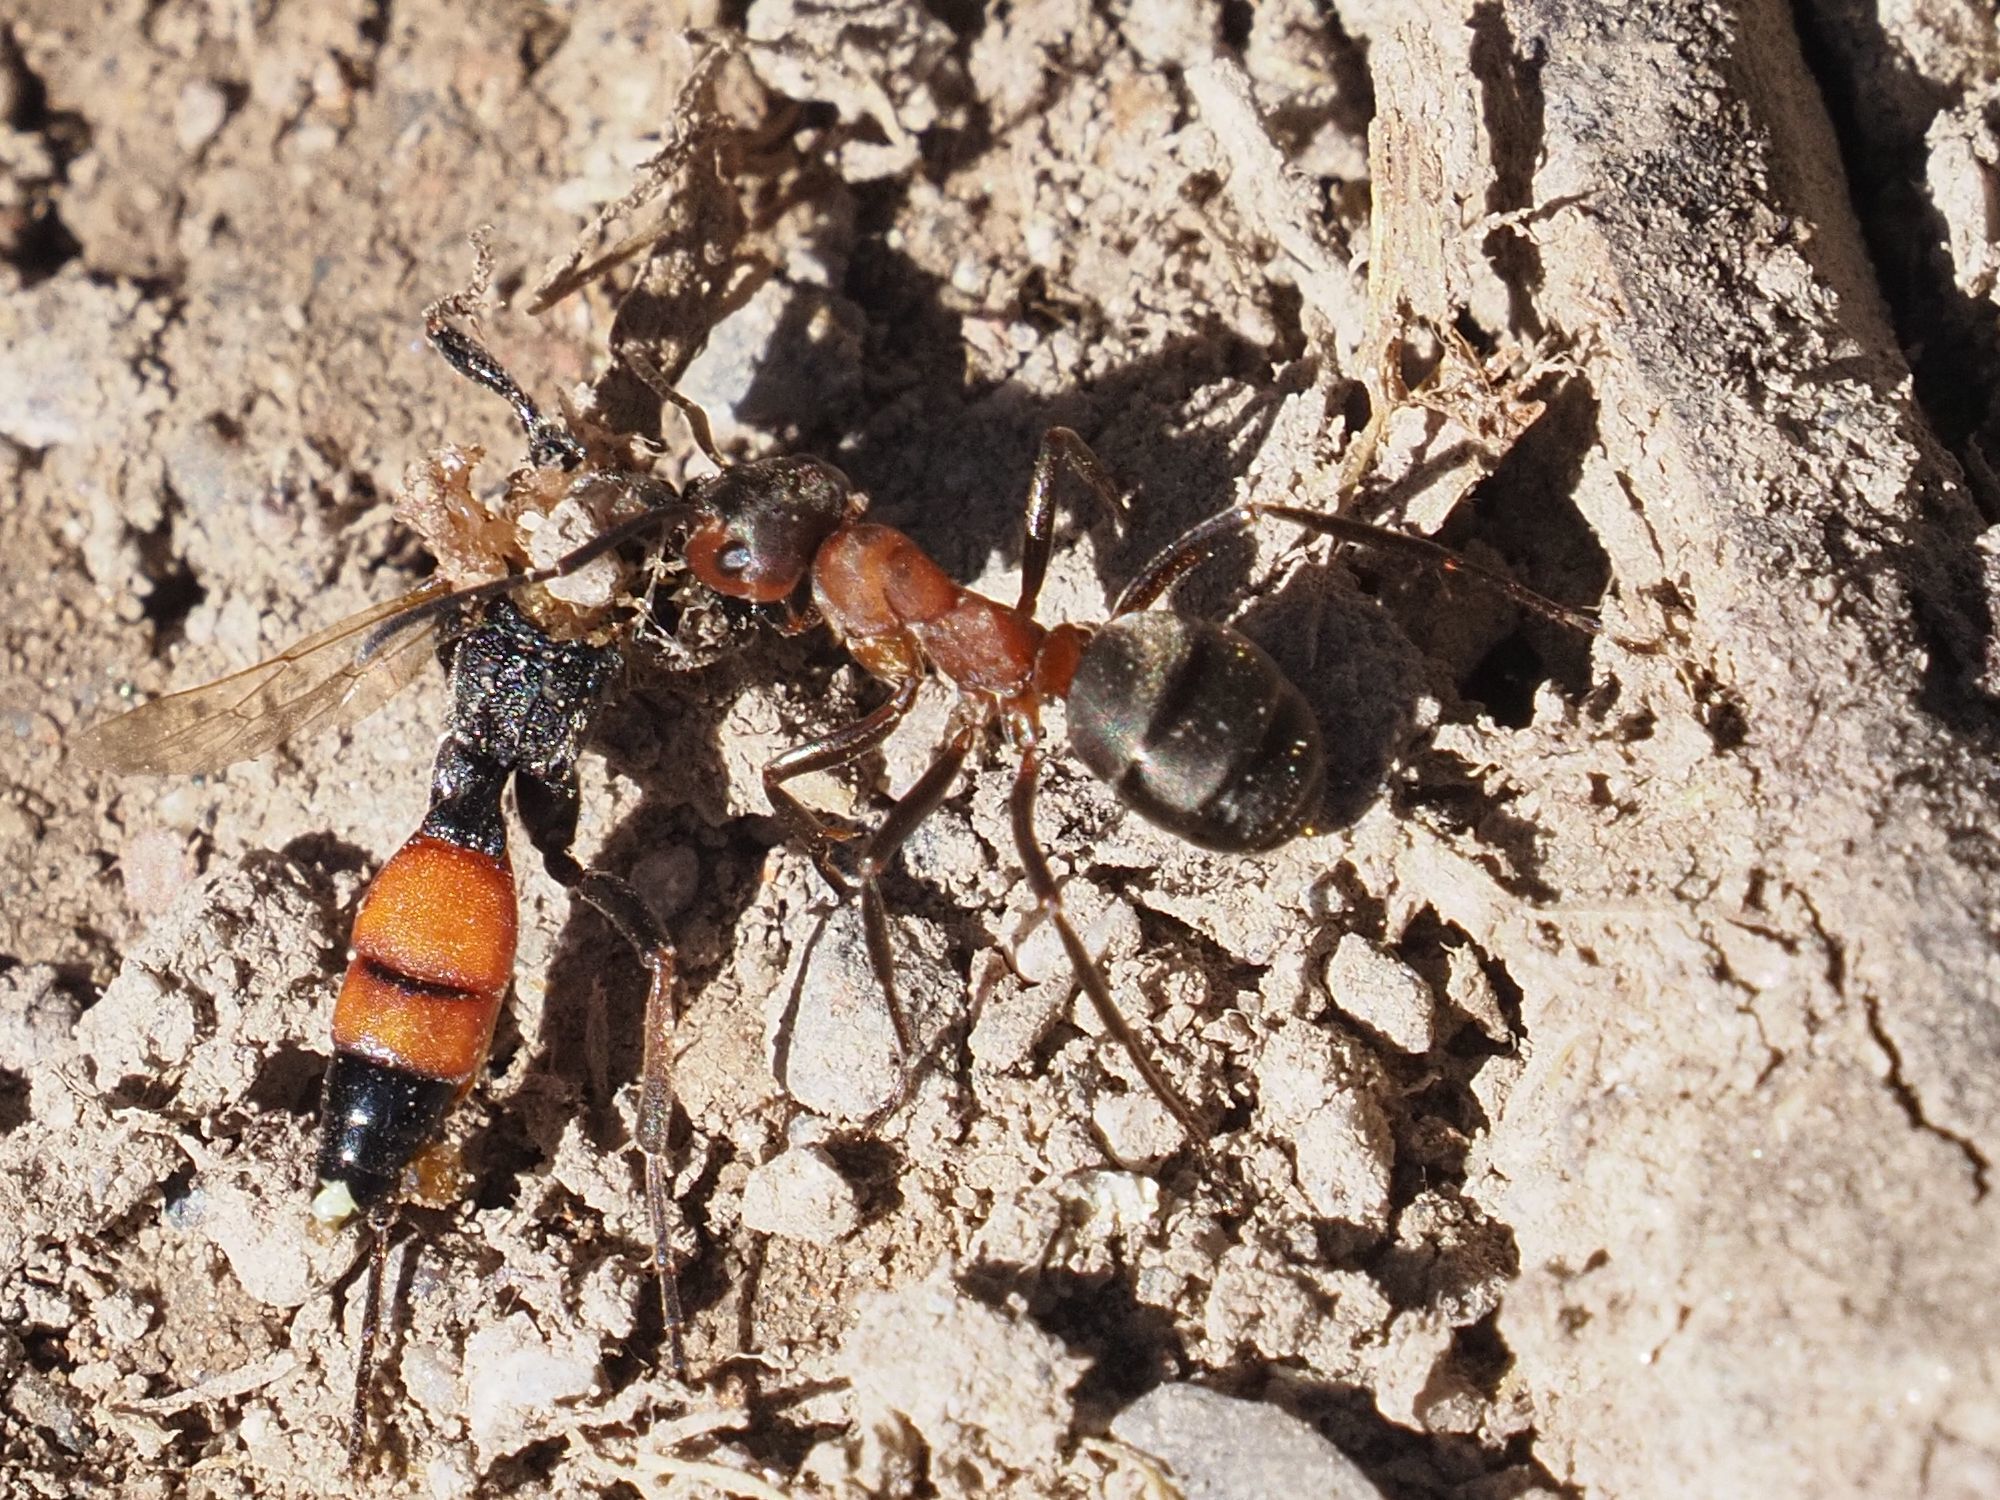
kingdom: Animalia
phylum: Arthropoda
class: Insecta
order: Hymenoptera
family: Formicidae
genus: Formica
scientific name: Formica
